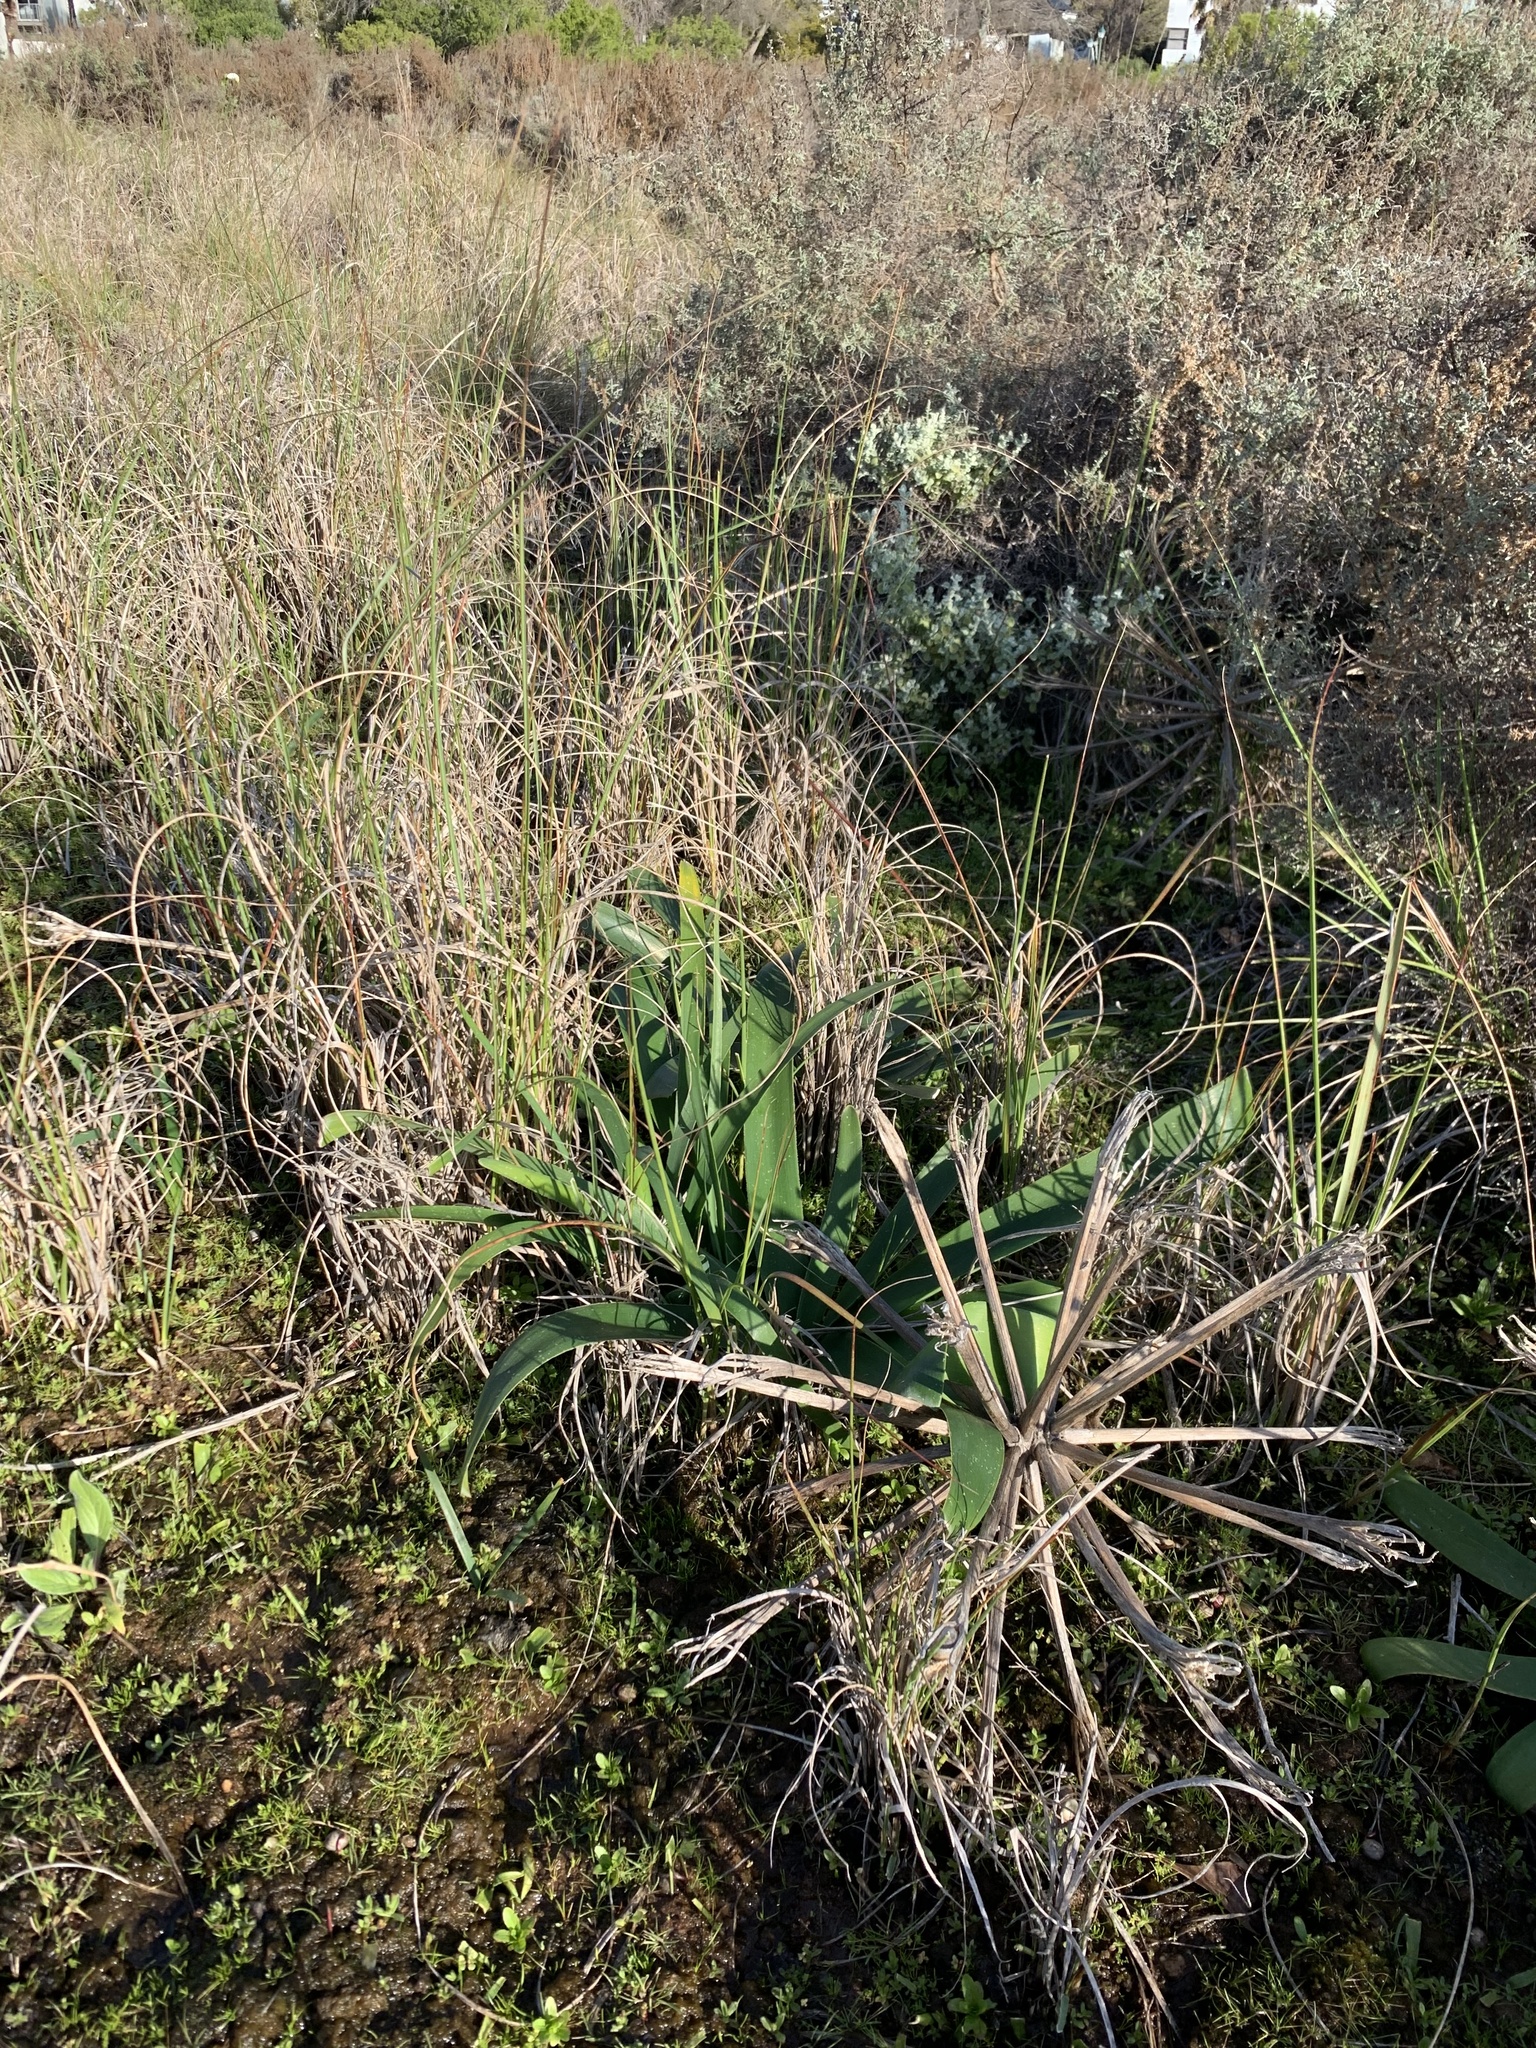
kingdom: Plantae
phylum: Tracheophyta
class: Liliopsida
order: Asparagales
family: Amaryllidaceae
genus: Ammocharis
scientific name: Ammocharis longifolia
